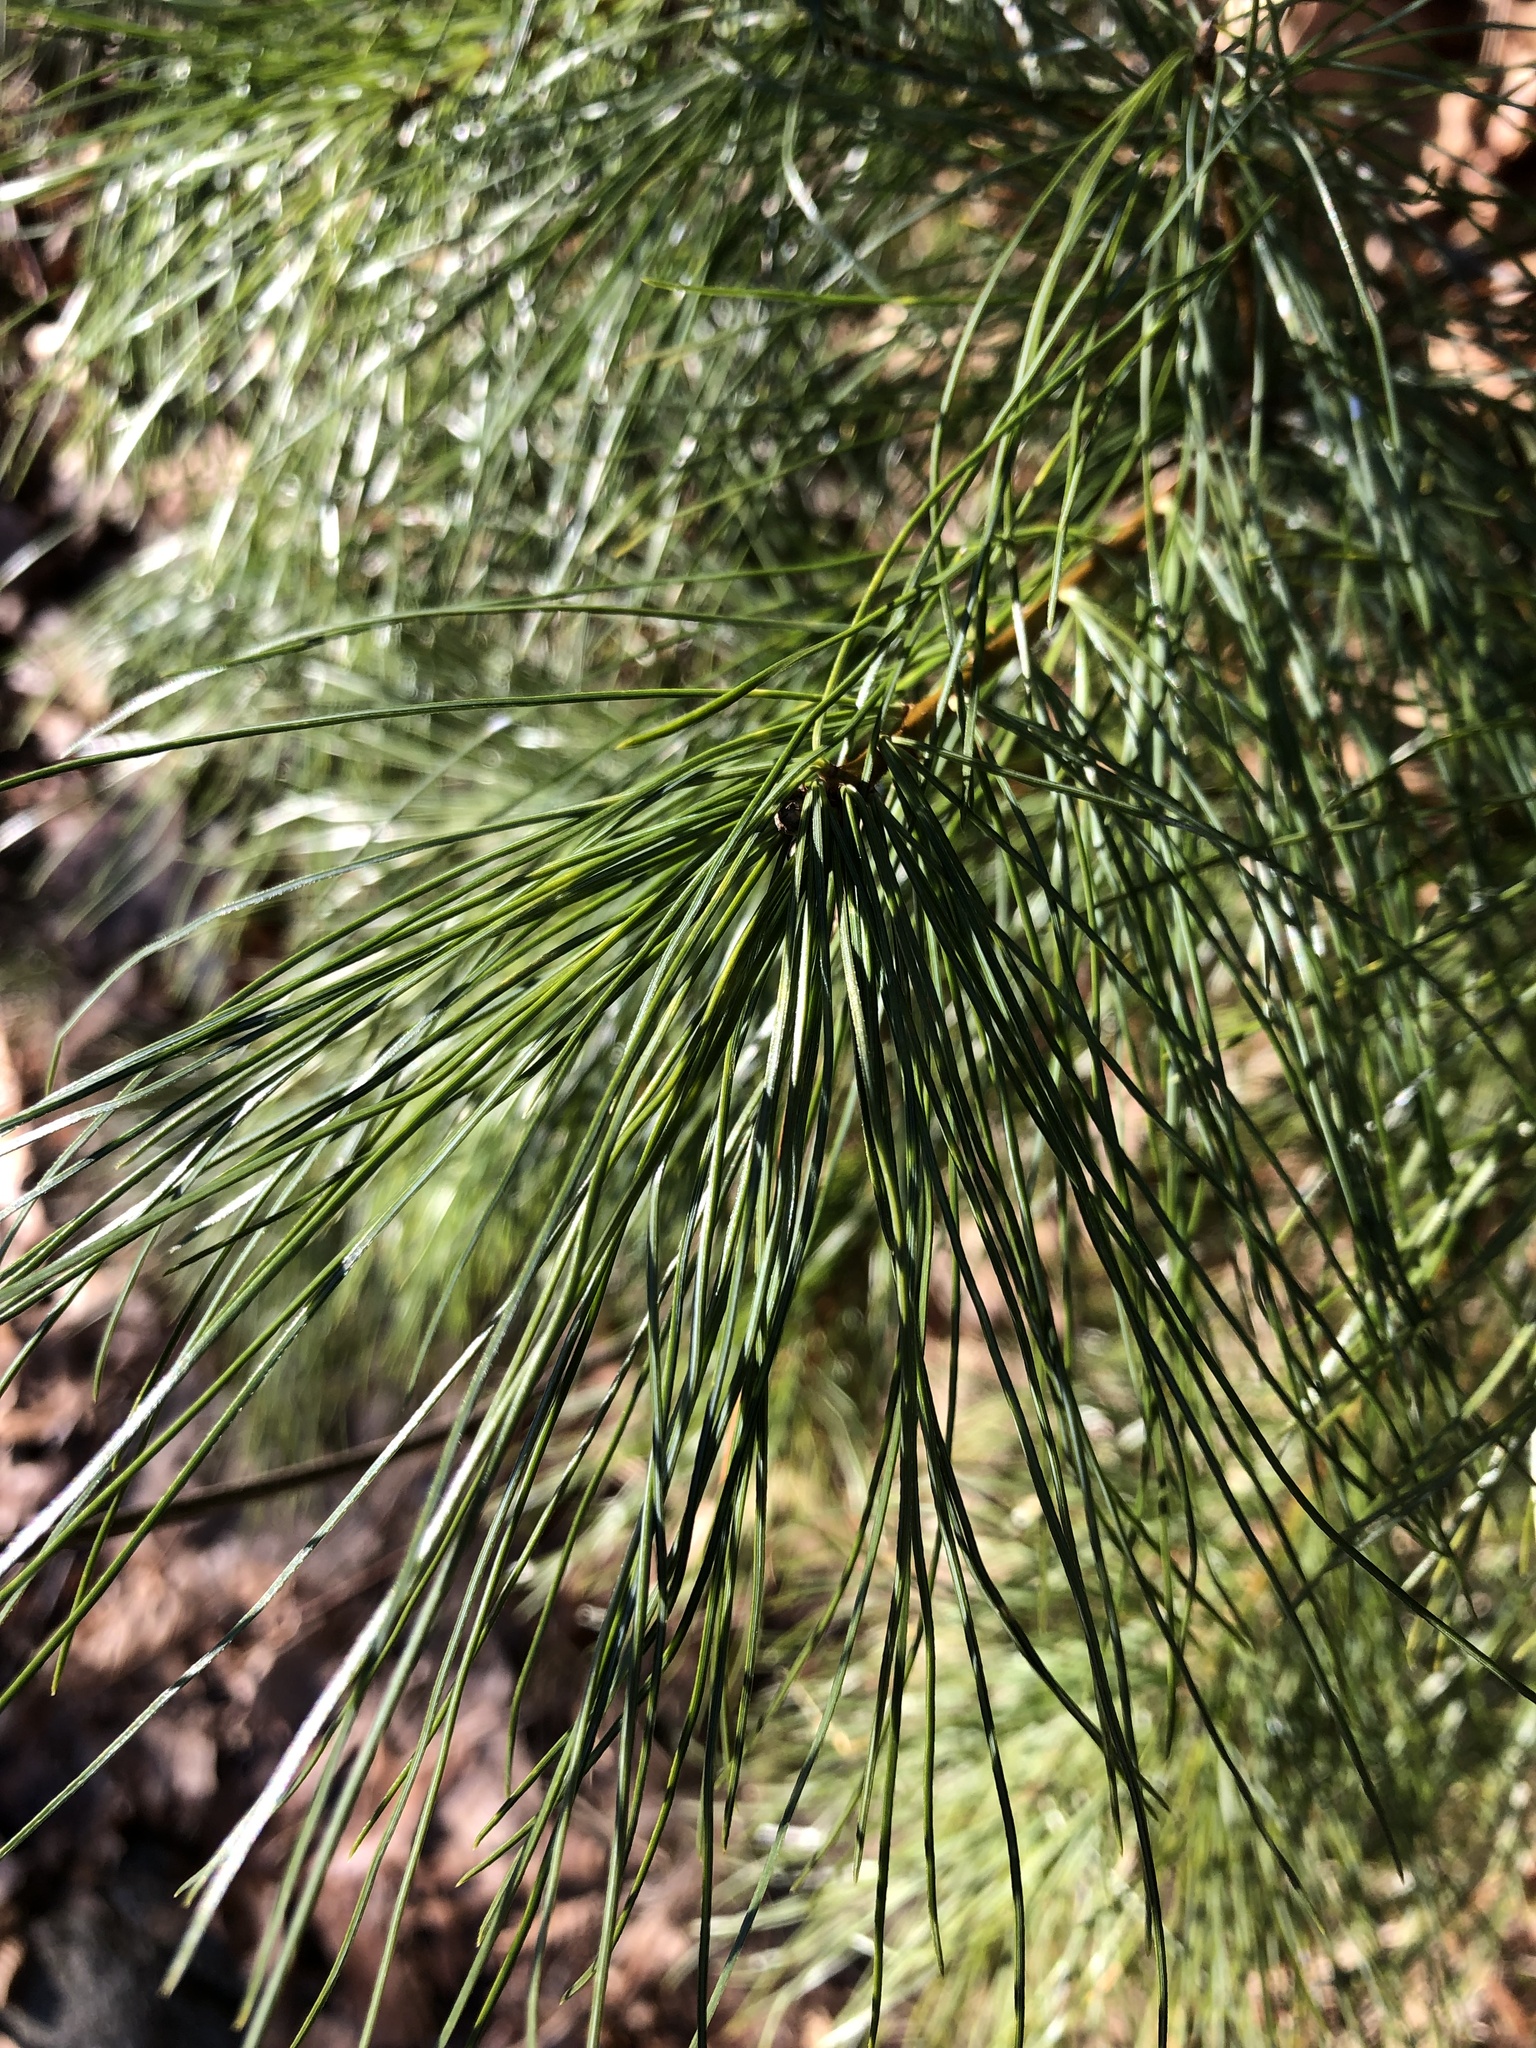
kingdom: Plantae
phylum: Tracheophyta
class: Pinopsida
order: Pinales
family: Pinaceae
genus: Pinus
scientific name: Pinus strobus
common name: Weymouth pine
